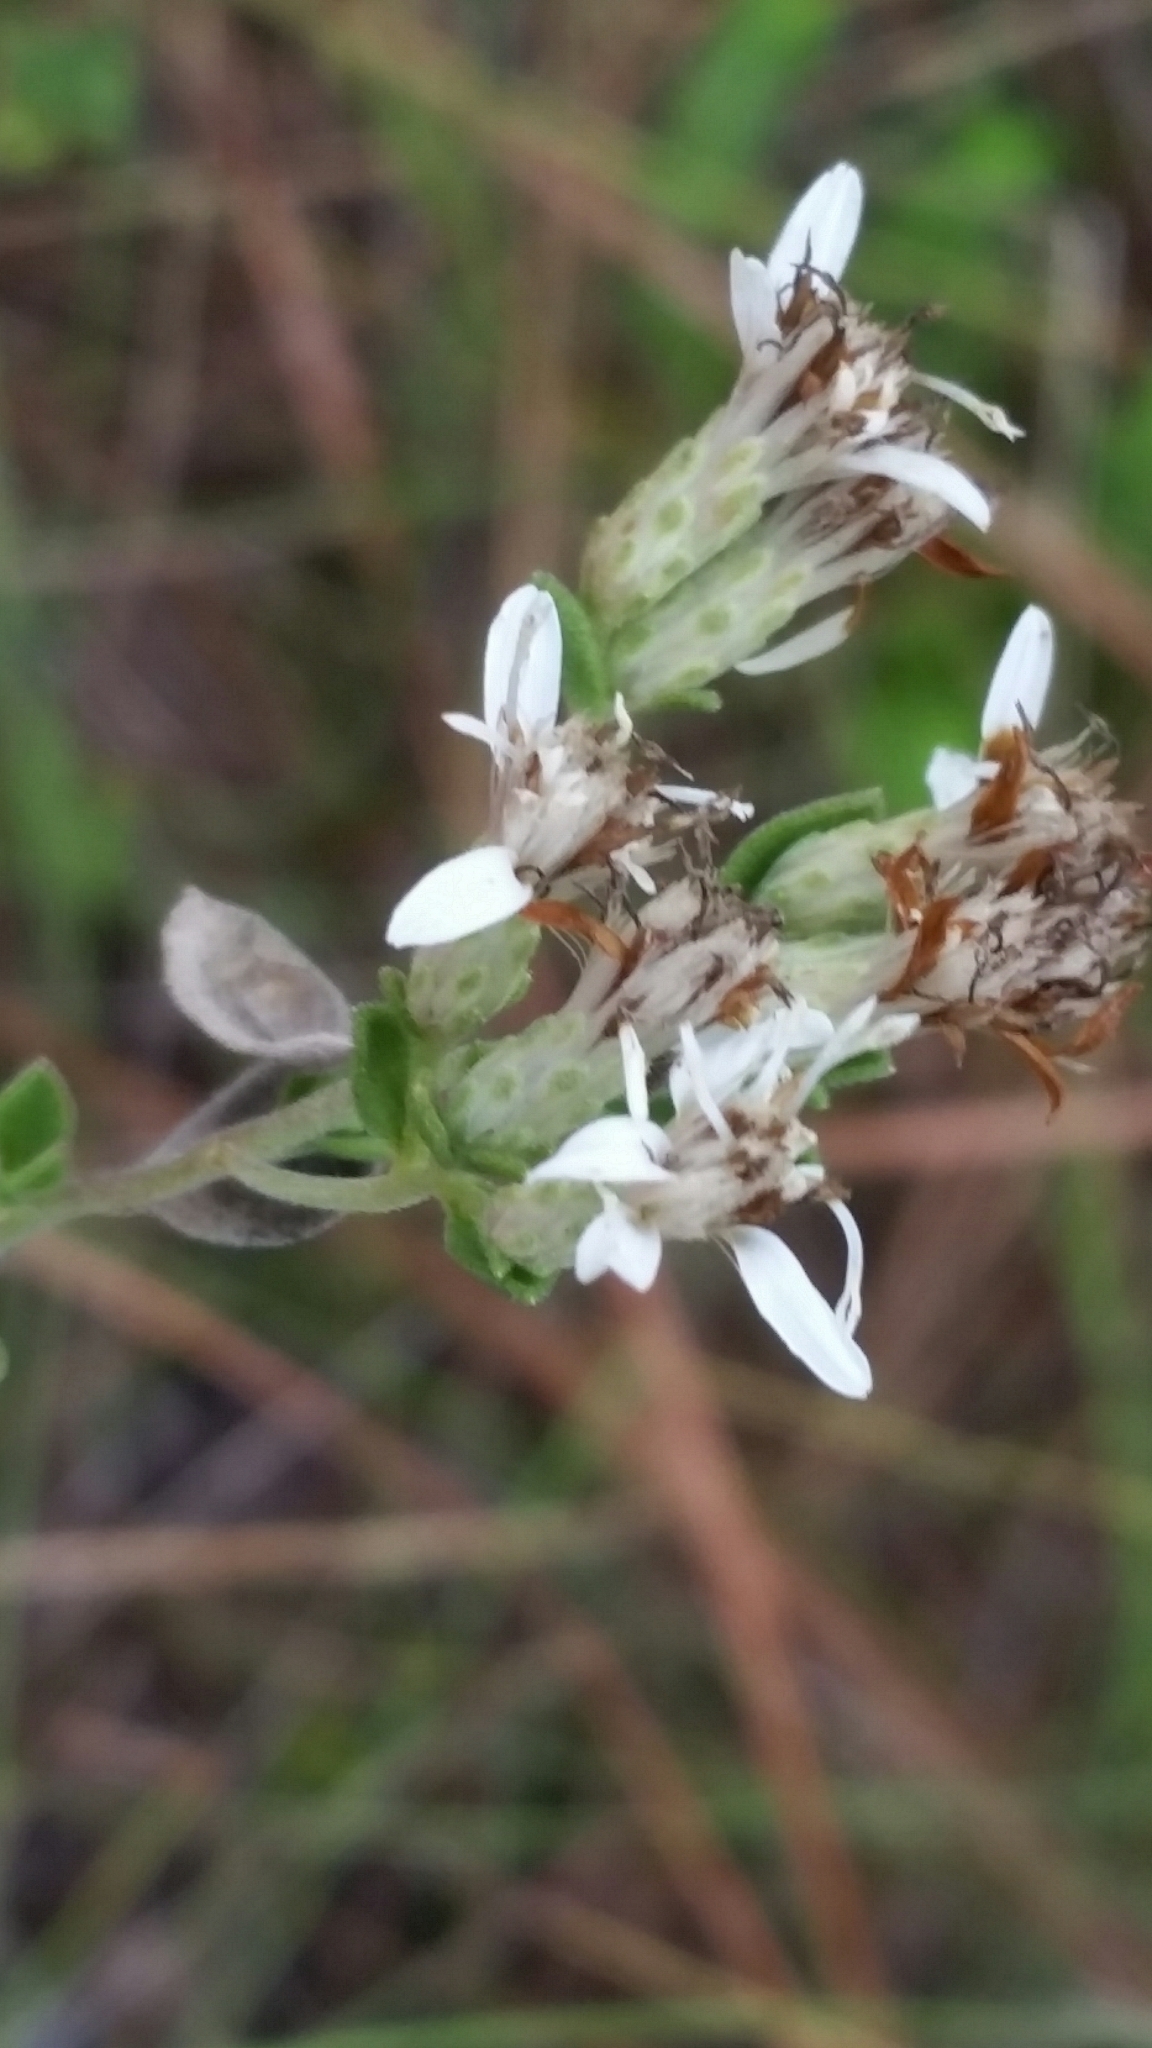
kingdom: Plantae
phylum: Tracheophyta
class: Magnoliopsida
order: Asterales
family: Asteraceae
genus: Sericocarpus
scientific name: Sericocarpus tortifolius
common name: Dixie aster
